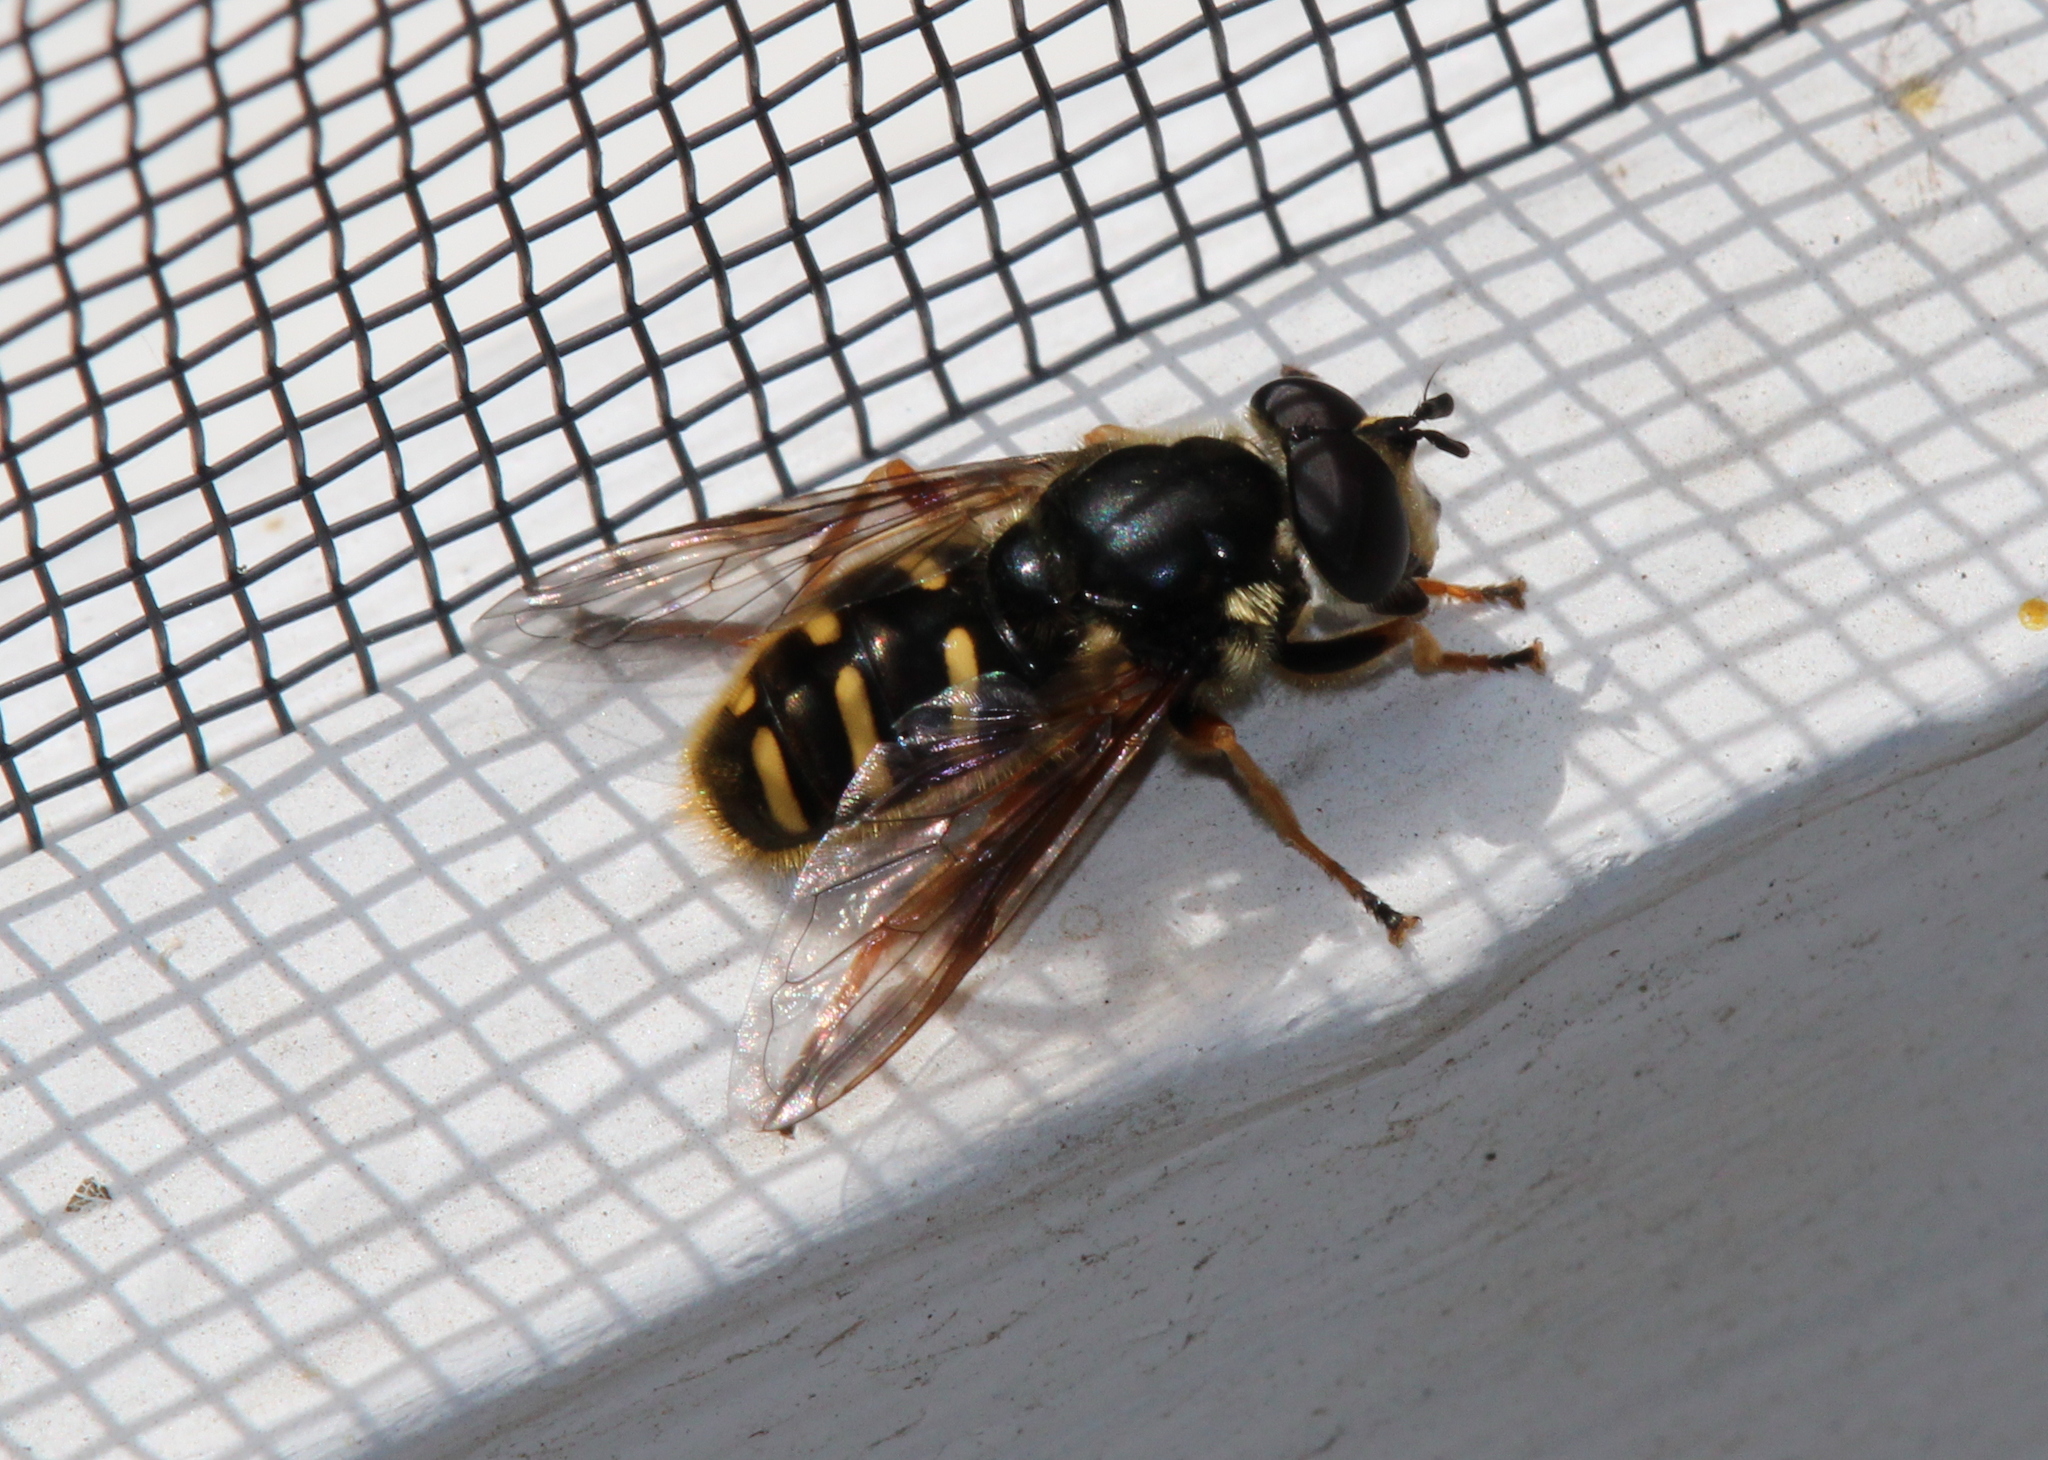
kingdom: Animalia
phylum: Arthropoda
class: Insecta
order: Diptera
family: Syrphidae
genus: Sericomyia
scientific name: Sericomyia chrysotoxoides
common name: Oblique-banded pond fly
